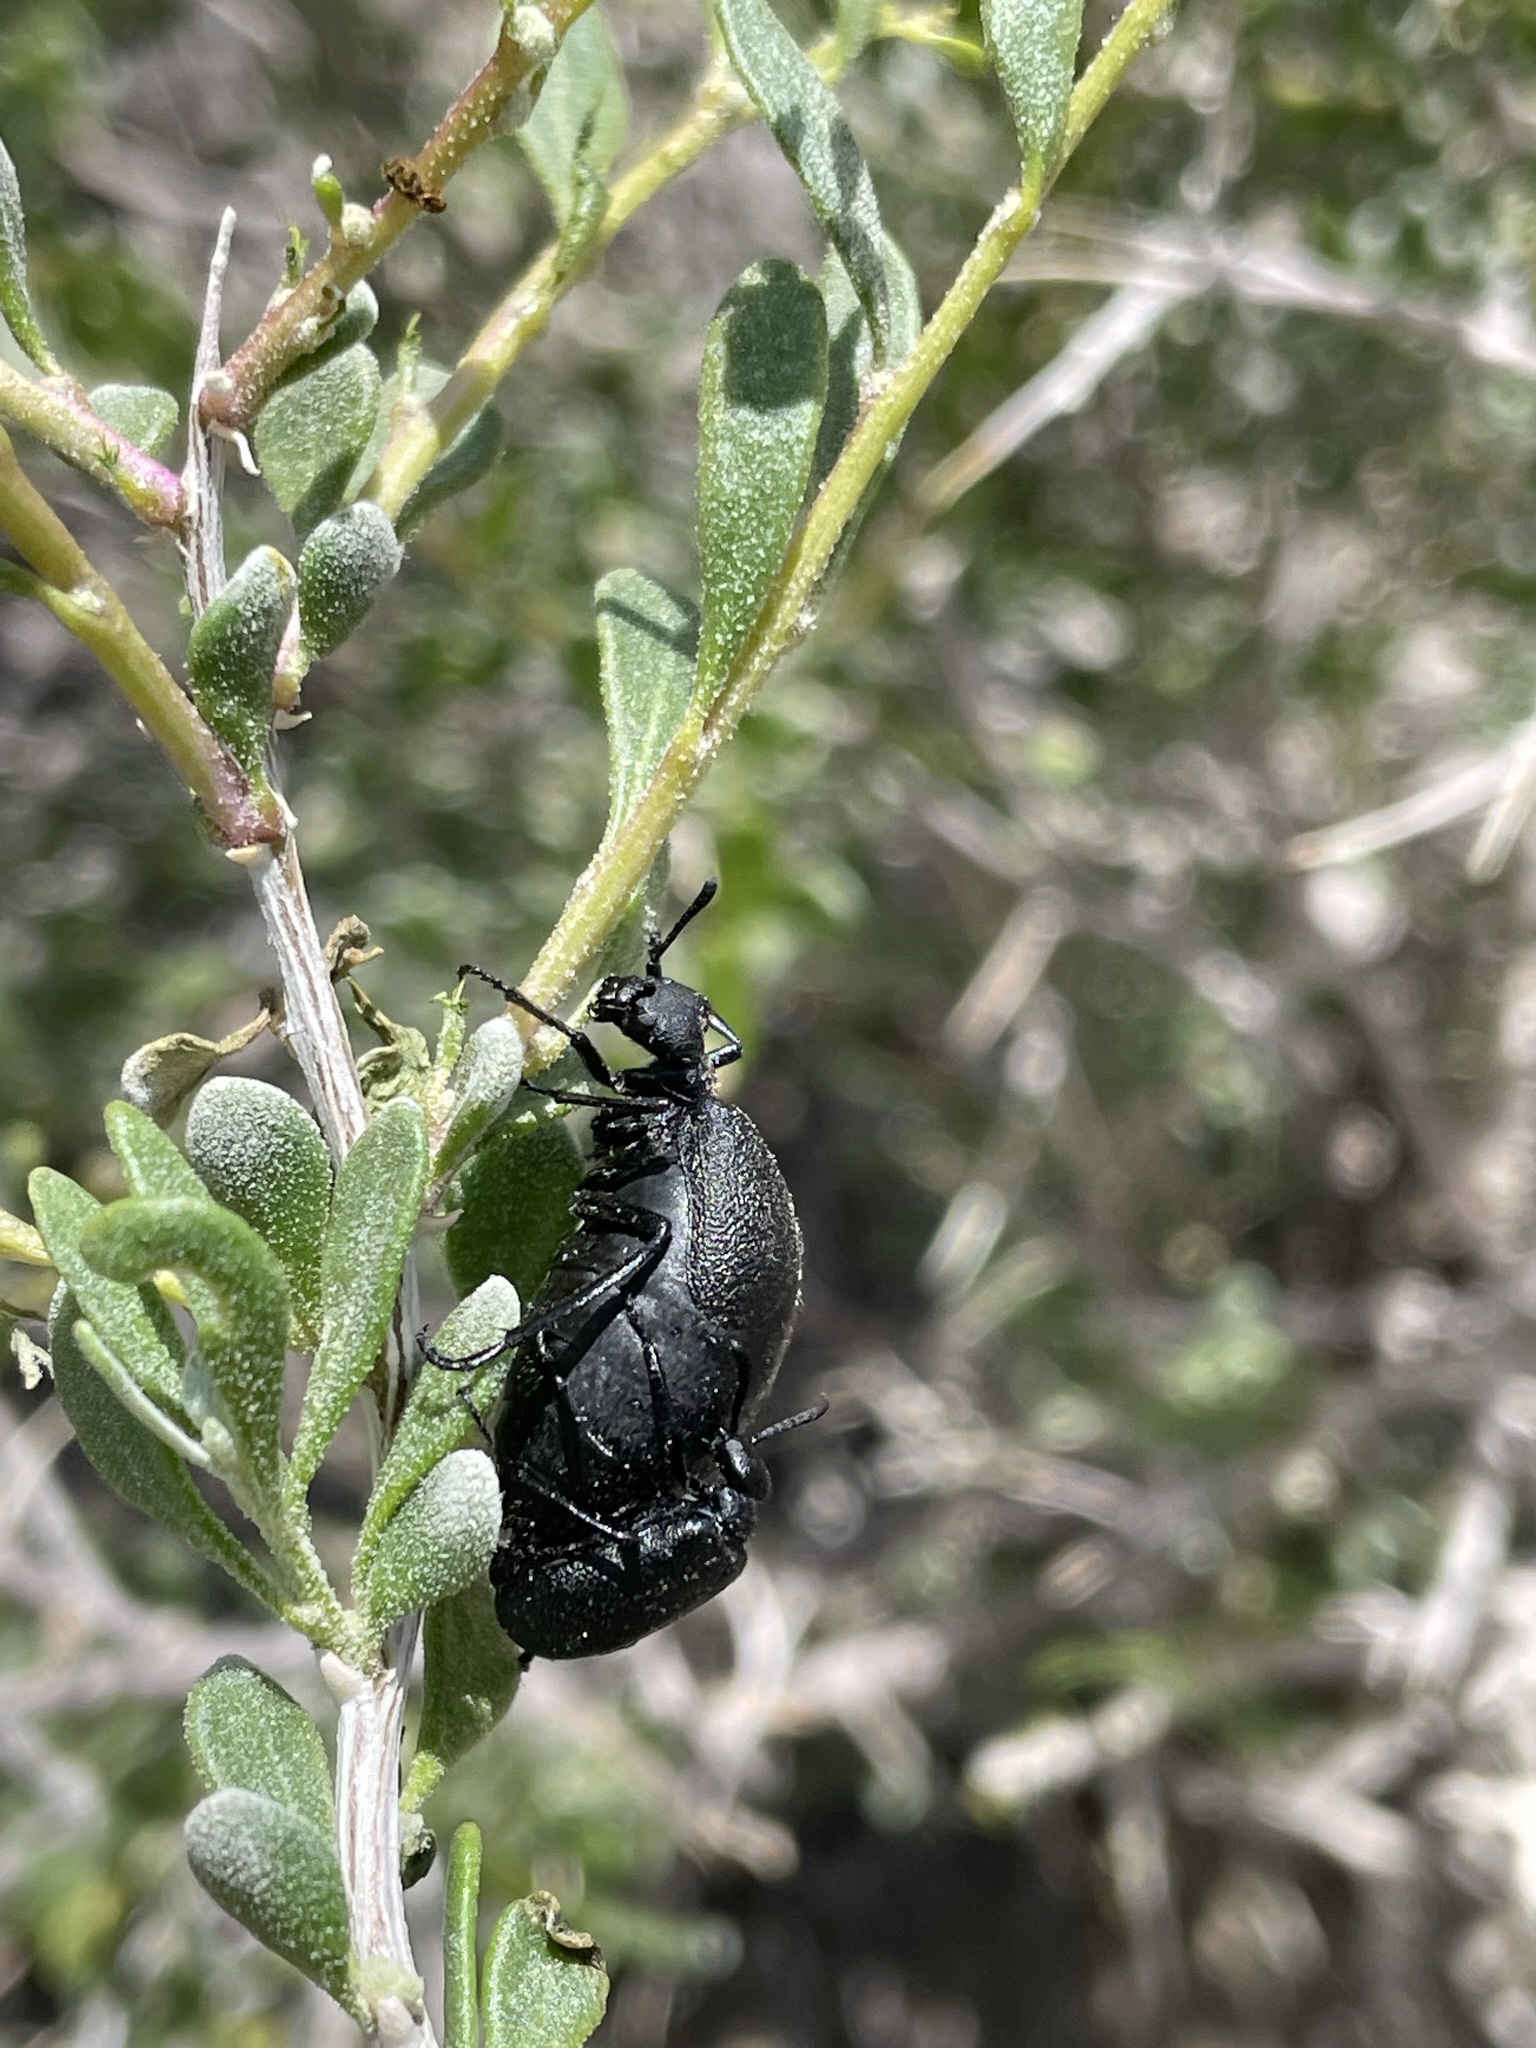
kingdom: Animalia
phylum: Arthropoda
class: Insecta
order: Coleoptera
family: Meloidae
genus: Cordylospasta
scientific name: Cordylospasta fulleri
